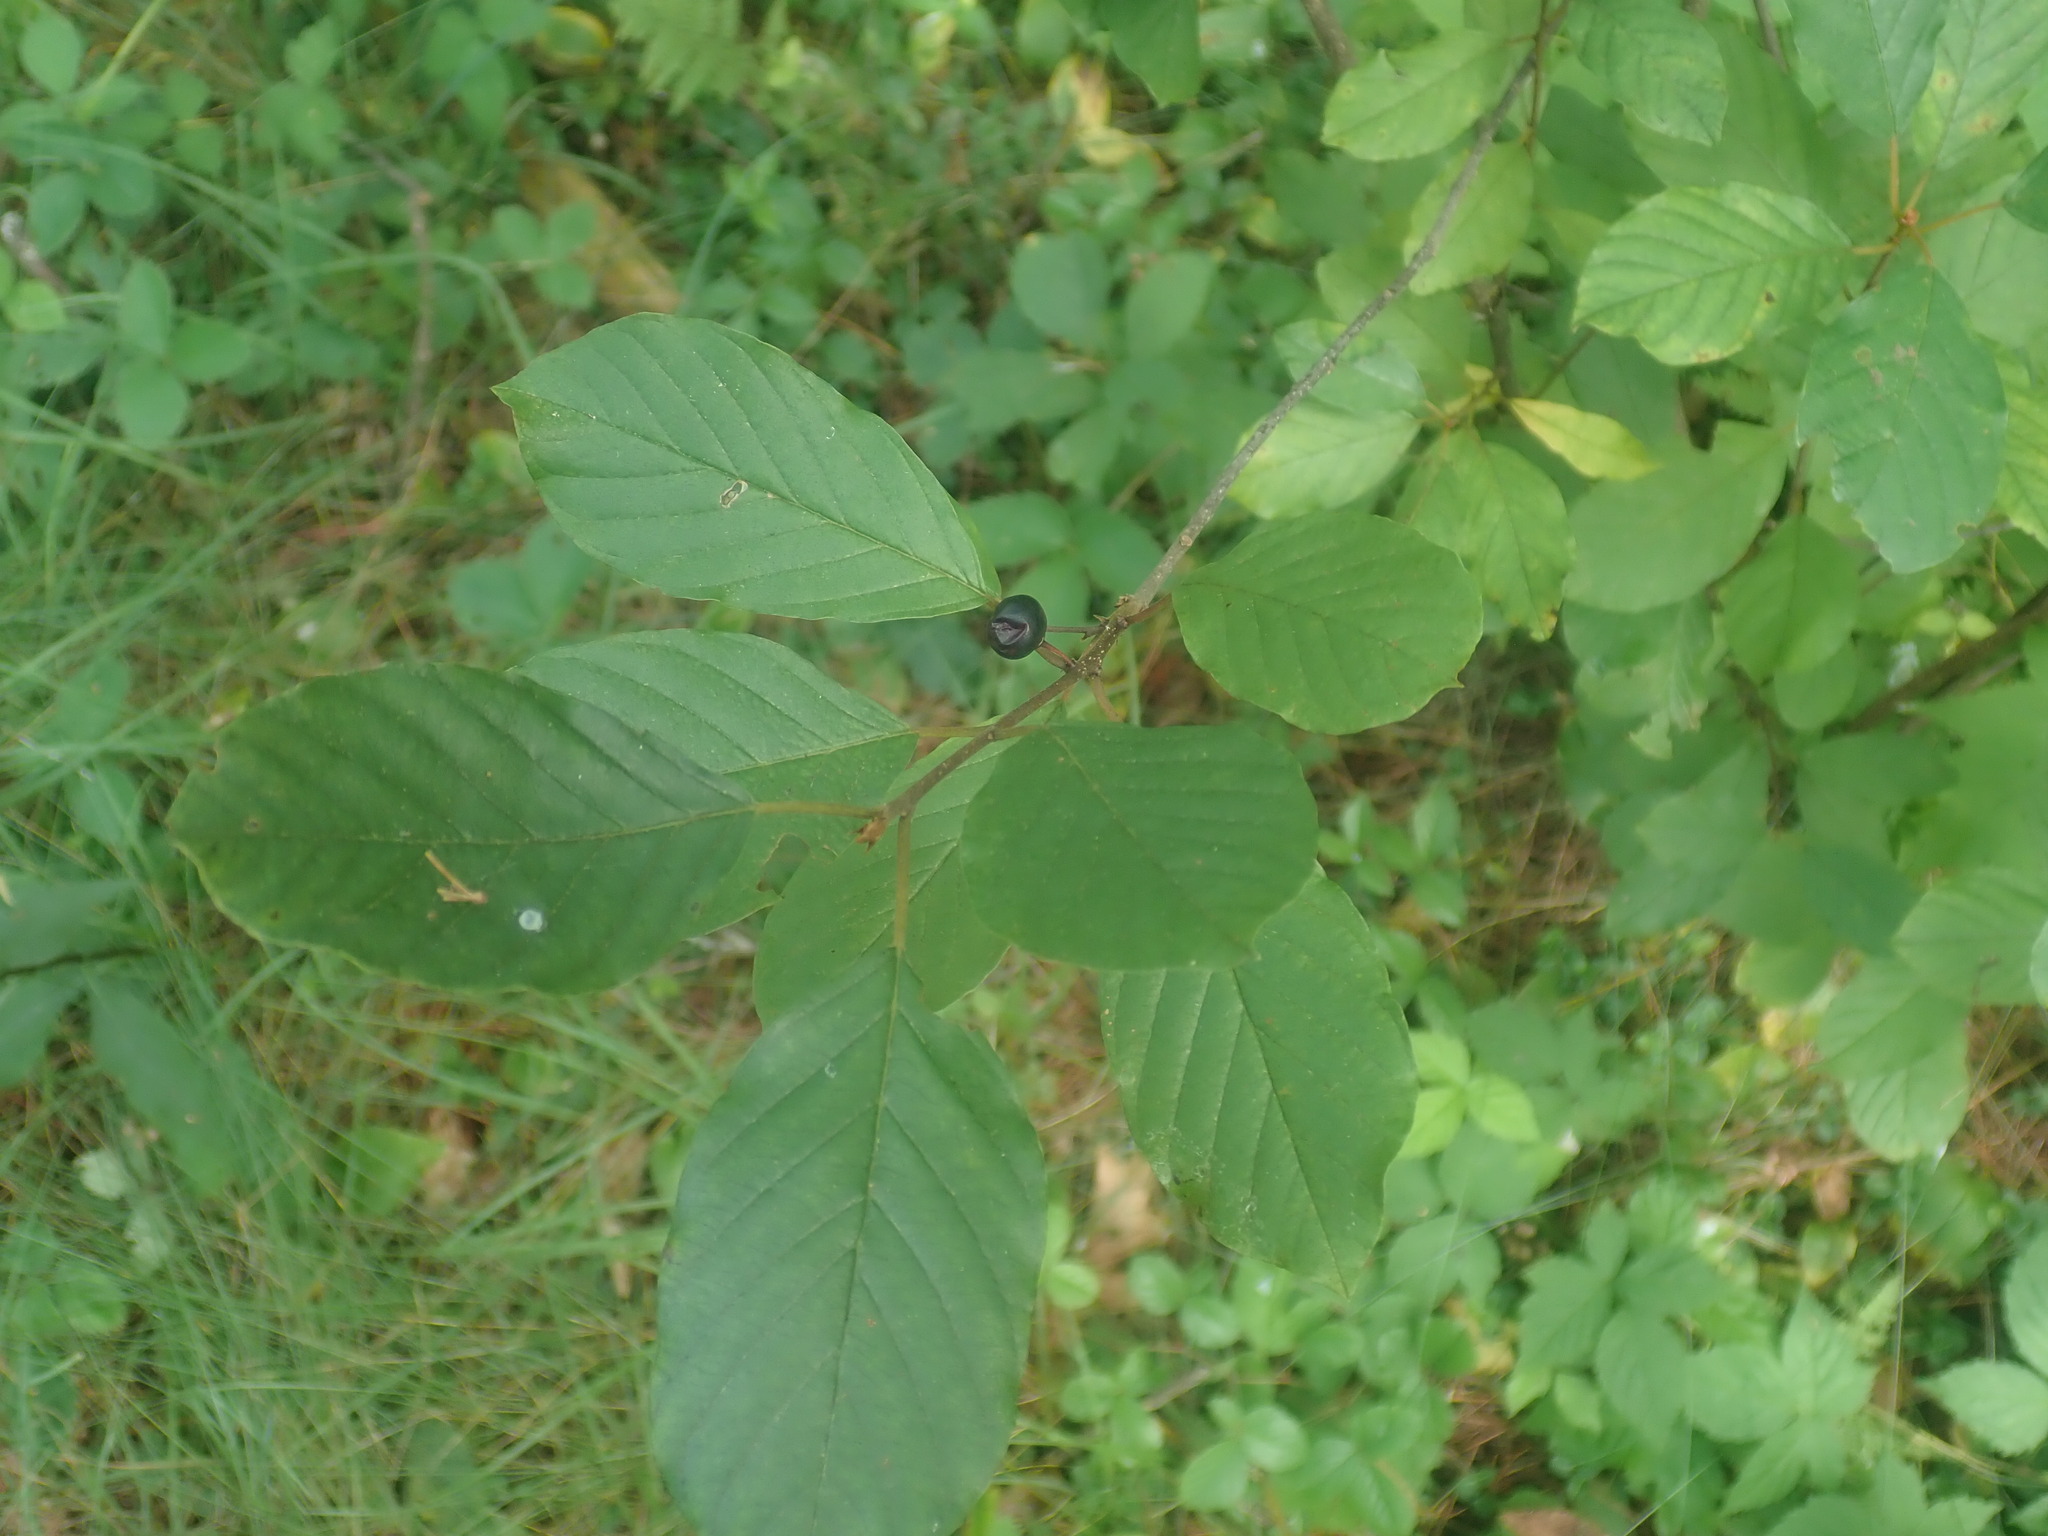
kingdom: Plantae
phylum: Tracheophyta
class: Magnoliopsida
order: Rosales
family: Rhamnaceae
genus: Frangula
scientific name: Frangula alnus
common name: Alder buckthorn
